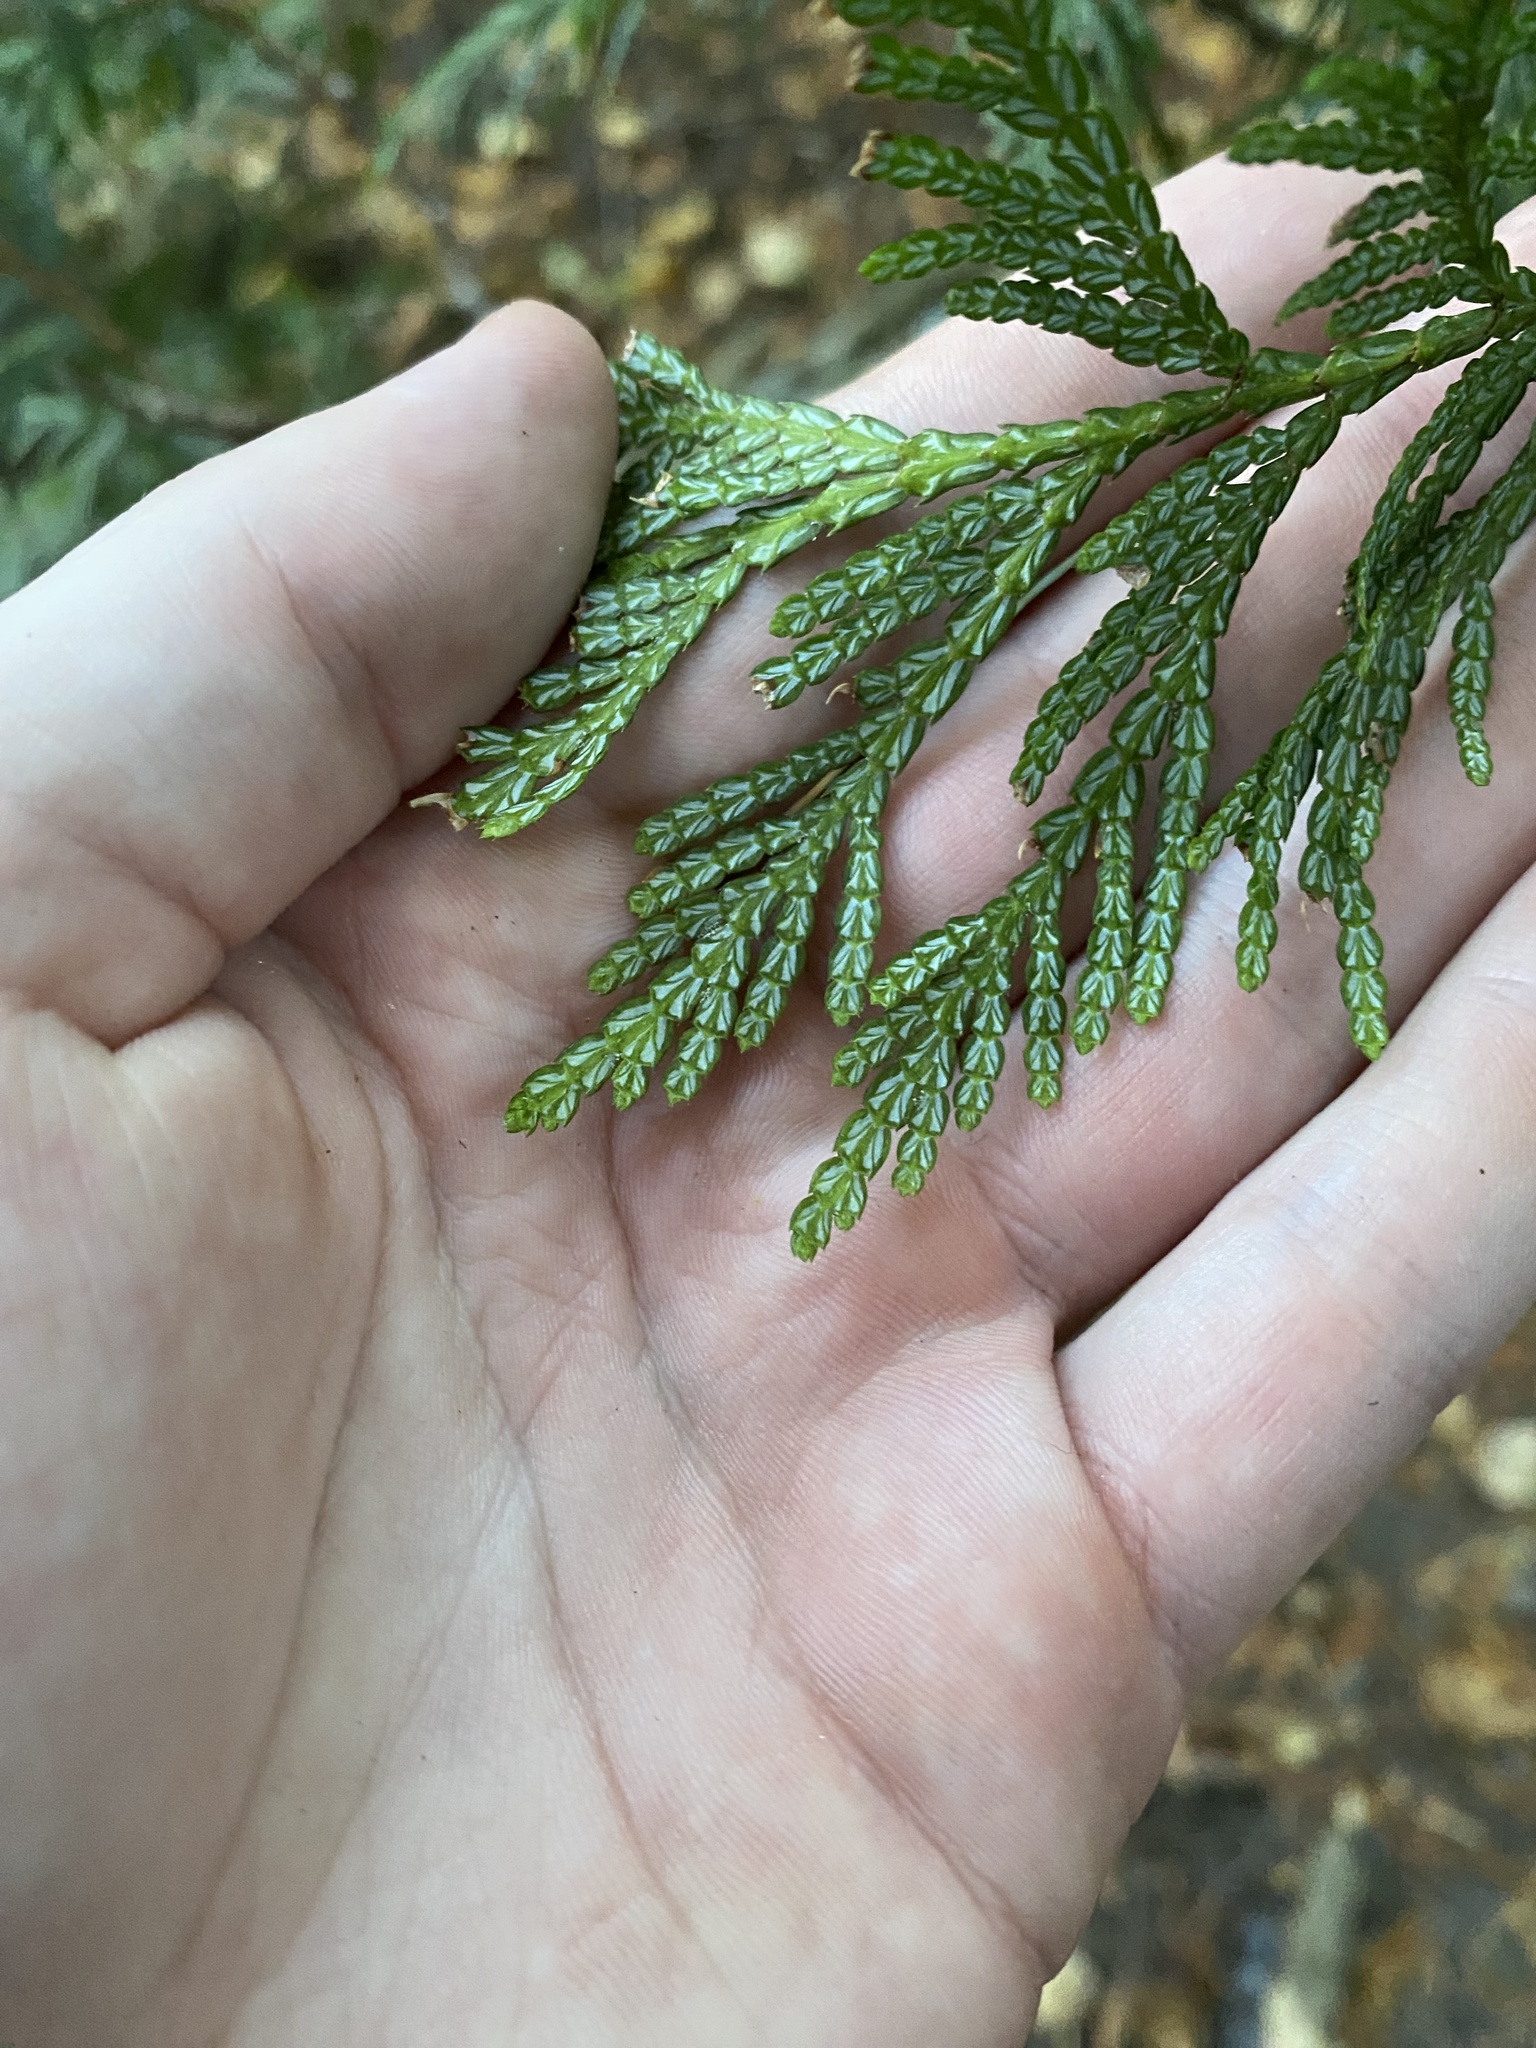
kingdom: Plantae
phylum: Tracheophyta
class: Pinopsida
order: Pinales
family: Cupressaceae
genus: Thuja
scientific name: Thuja plicata
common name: Western red-cedar
